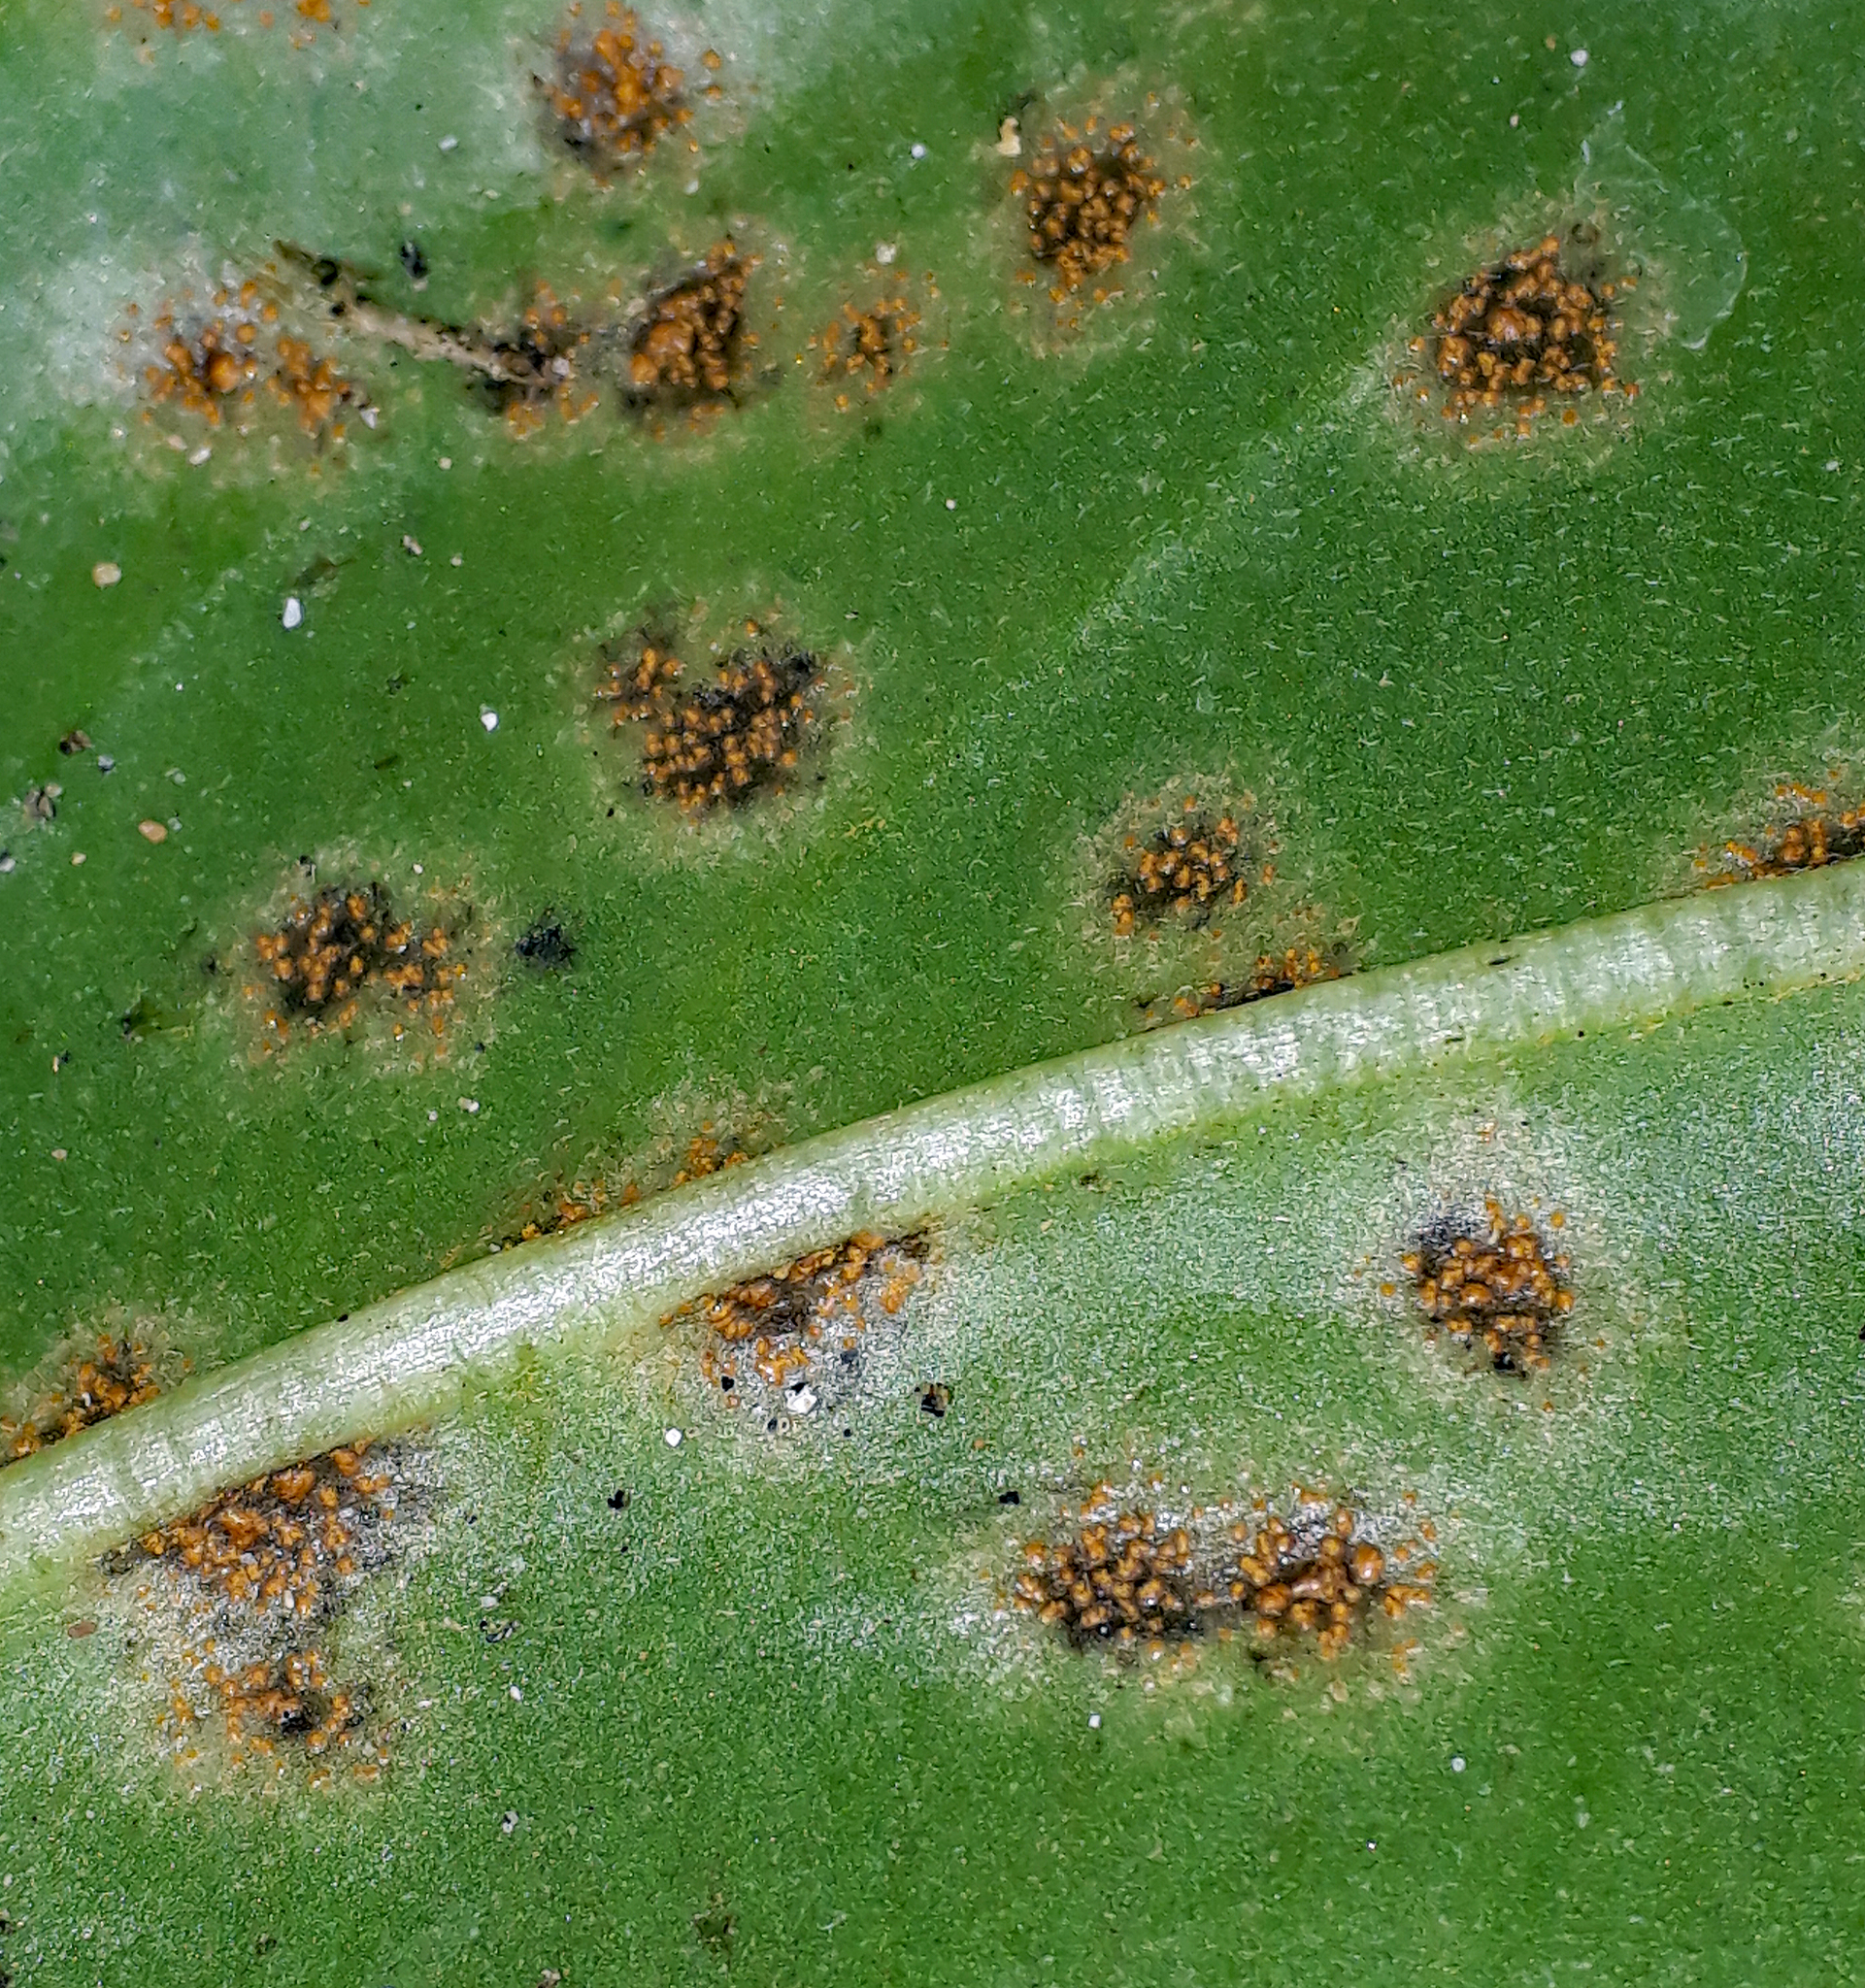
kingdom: Fungi
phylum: Basidiomycota
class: Pucciniomycetes
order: Pucciniales
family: Pucciniastraceae
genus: Pucciniastrum
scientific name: Pucciniastrum myosotidii
